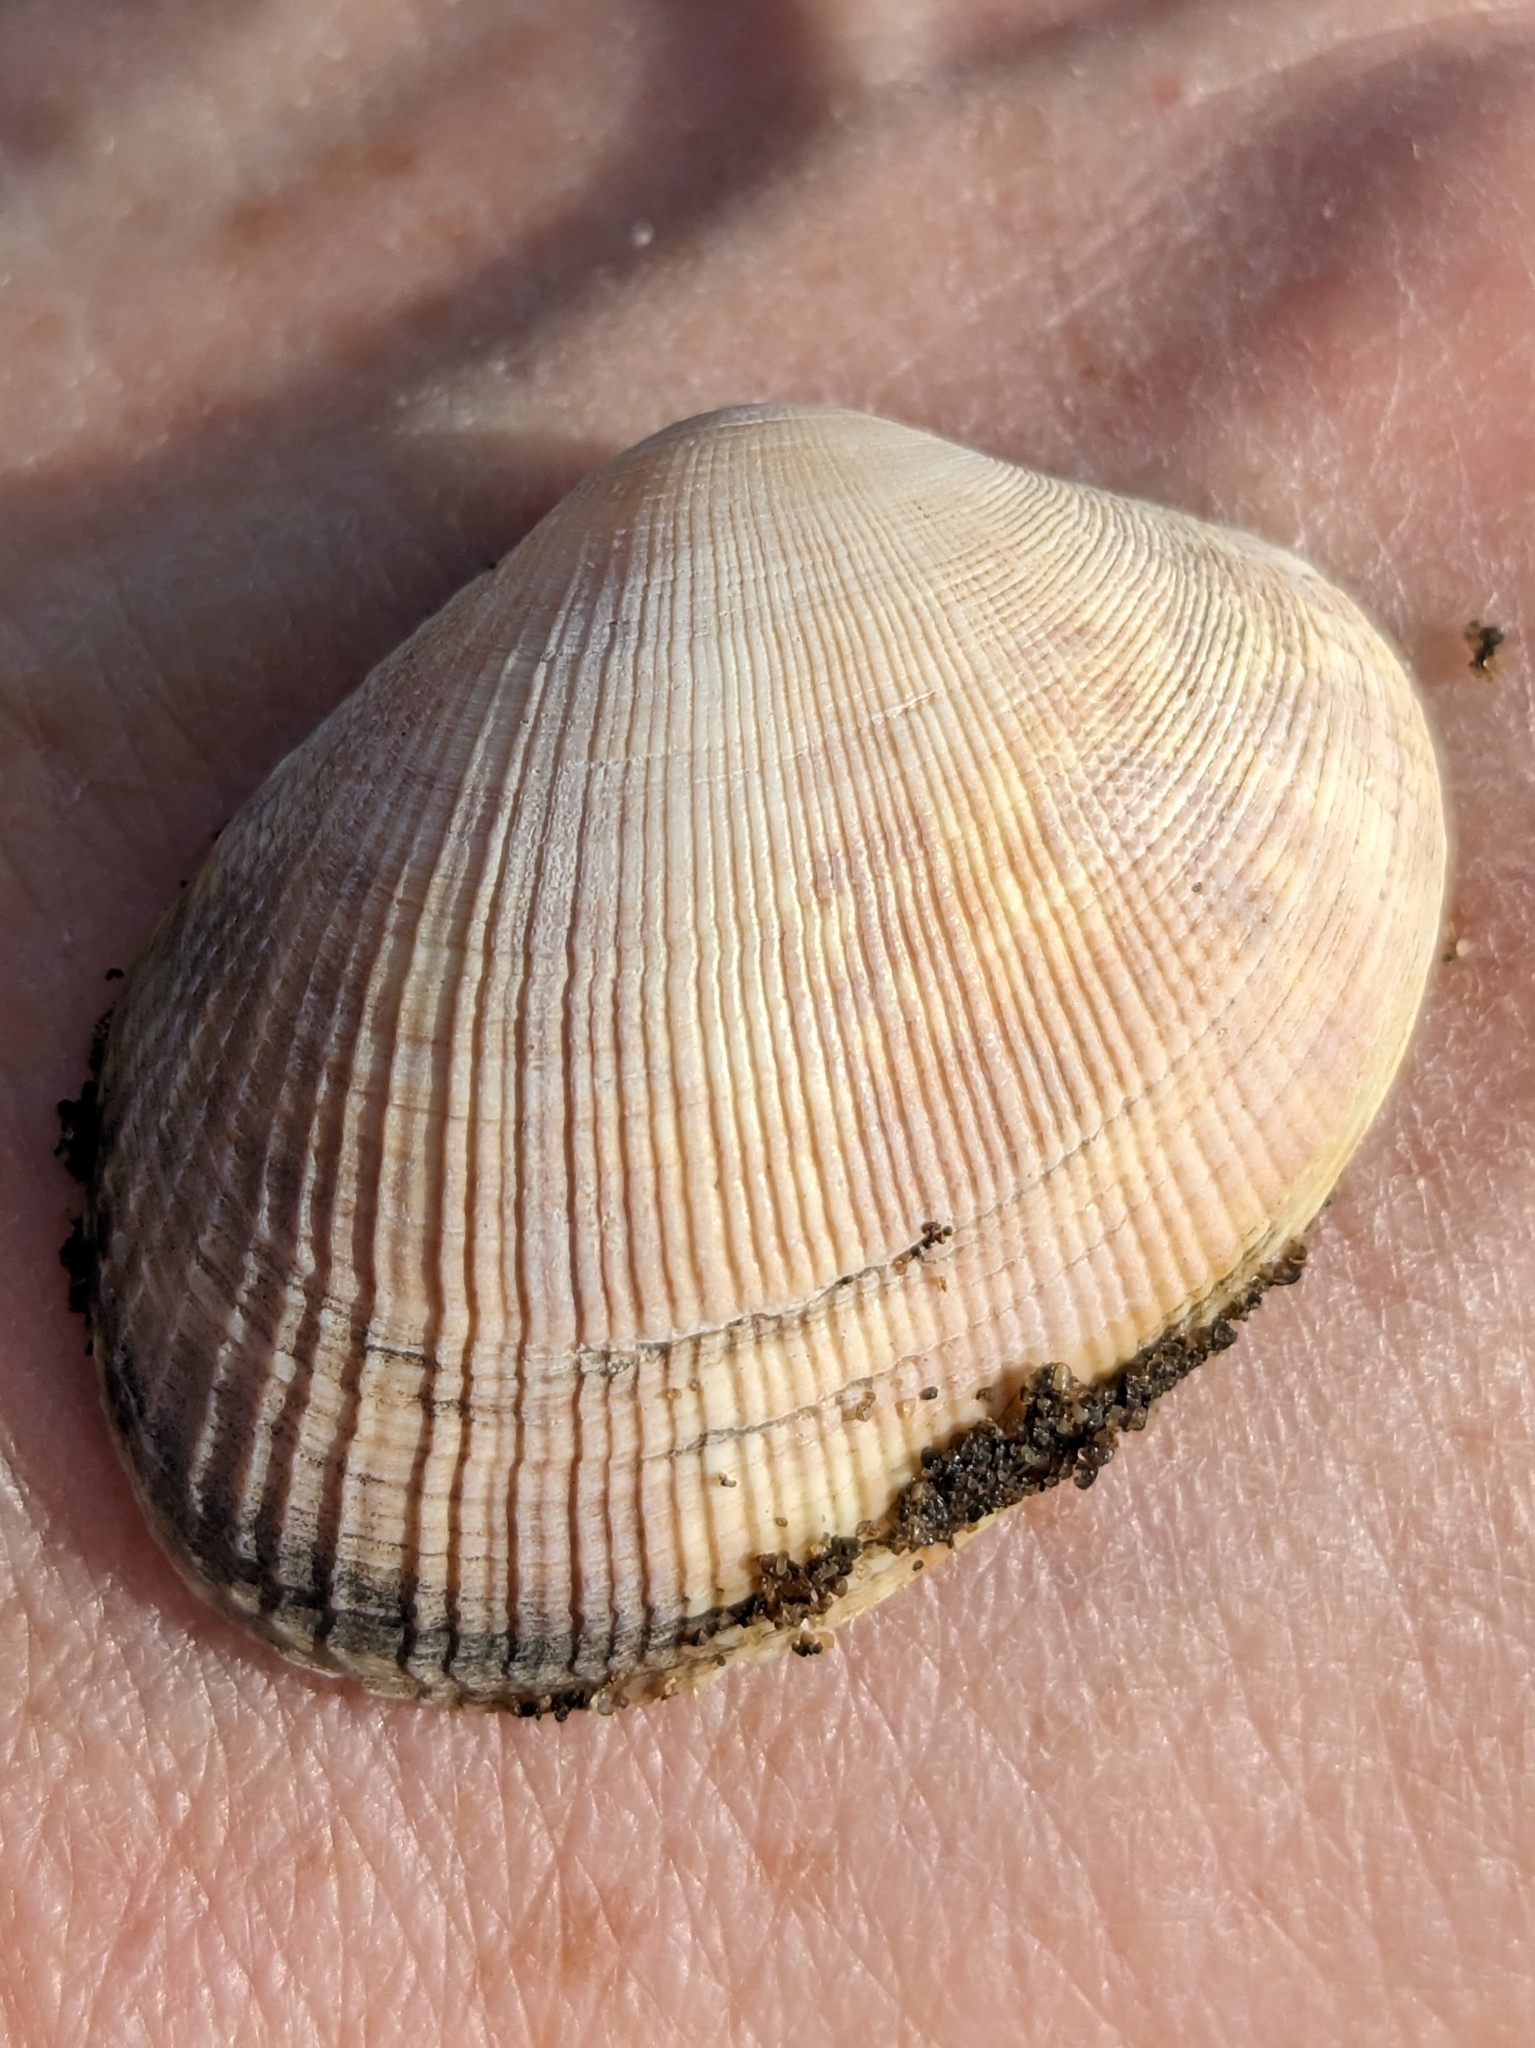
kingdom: Animalia
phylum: Mollusca
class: Bivalvia
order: Venerida
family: Veneridae
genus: Ruditapes
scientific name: Ruditapes philippinarum
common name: Manila clam
